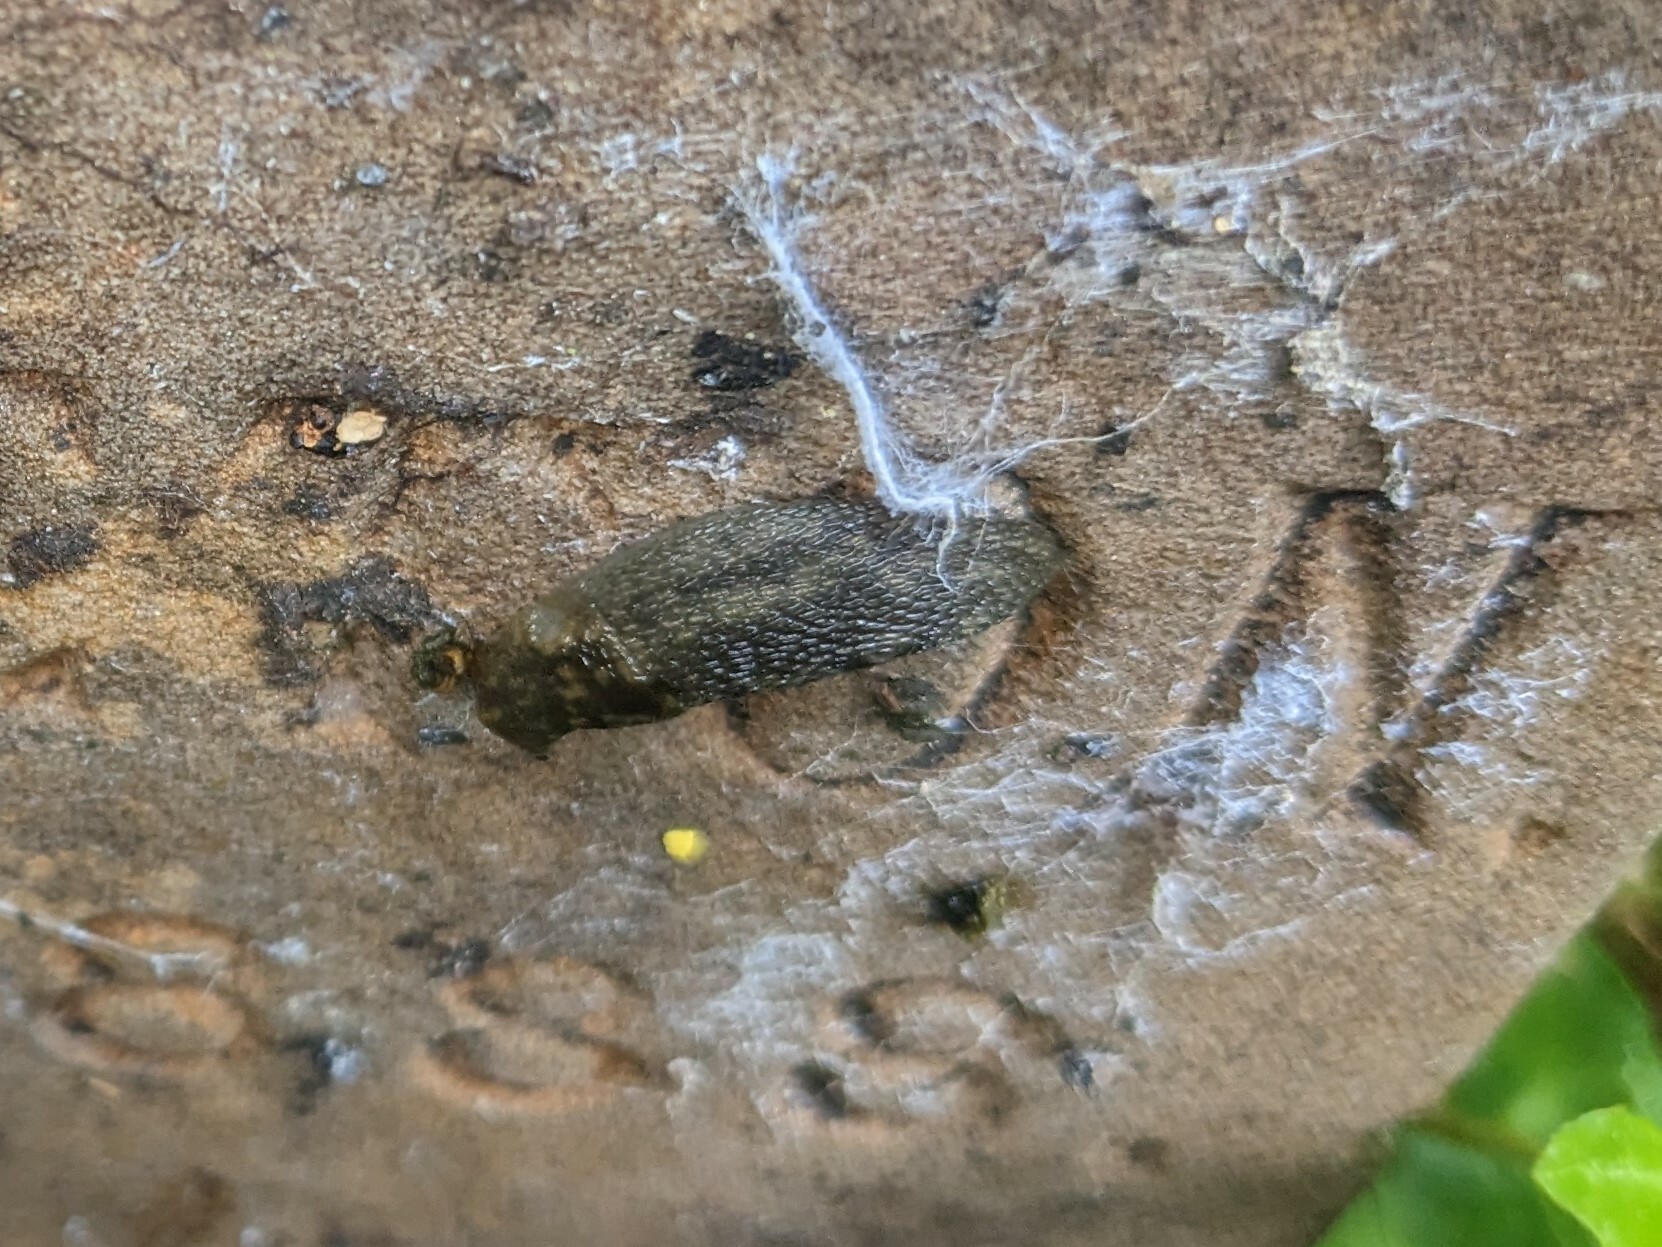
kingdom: Animalia
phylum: Mollusca
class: Gastropoda
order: Stylommatophora
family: Limacidae
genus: Limacus
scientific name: Limacus maculatus
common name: Irish yellow slug
